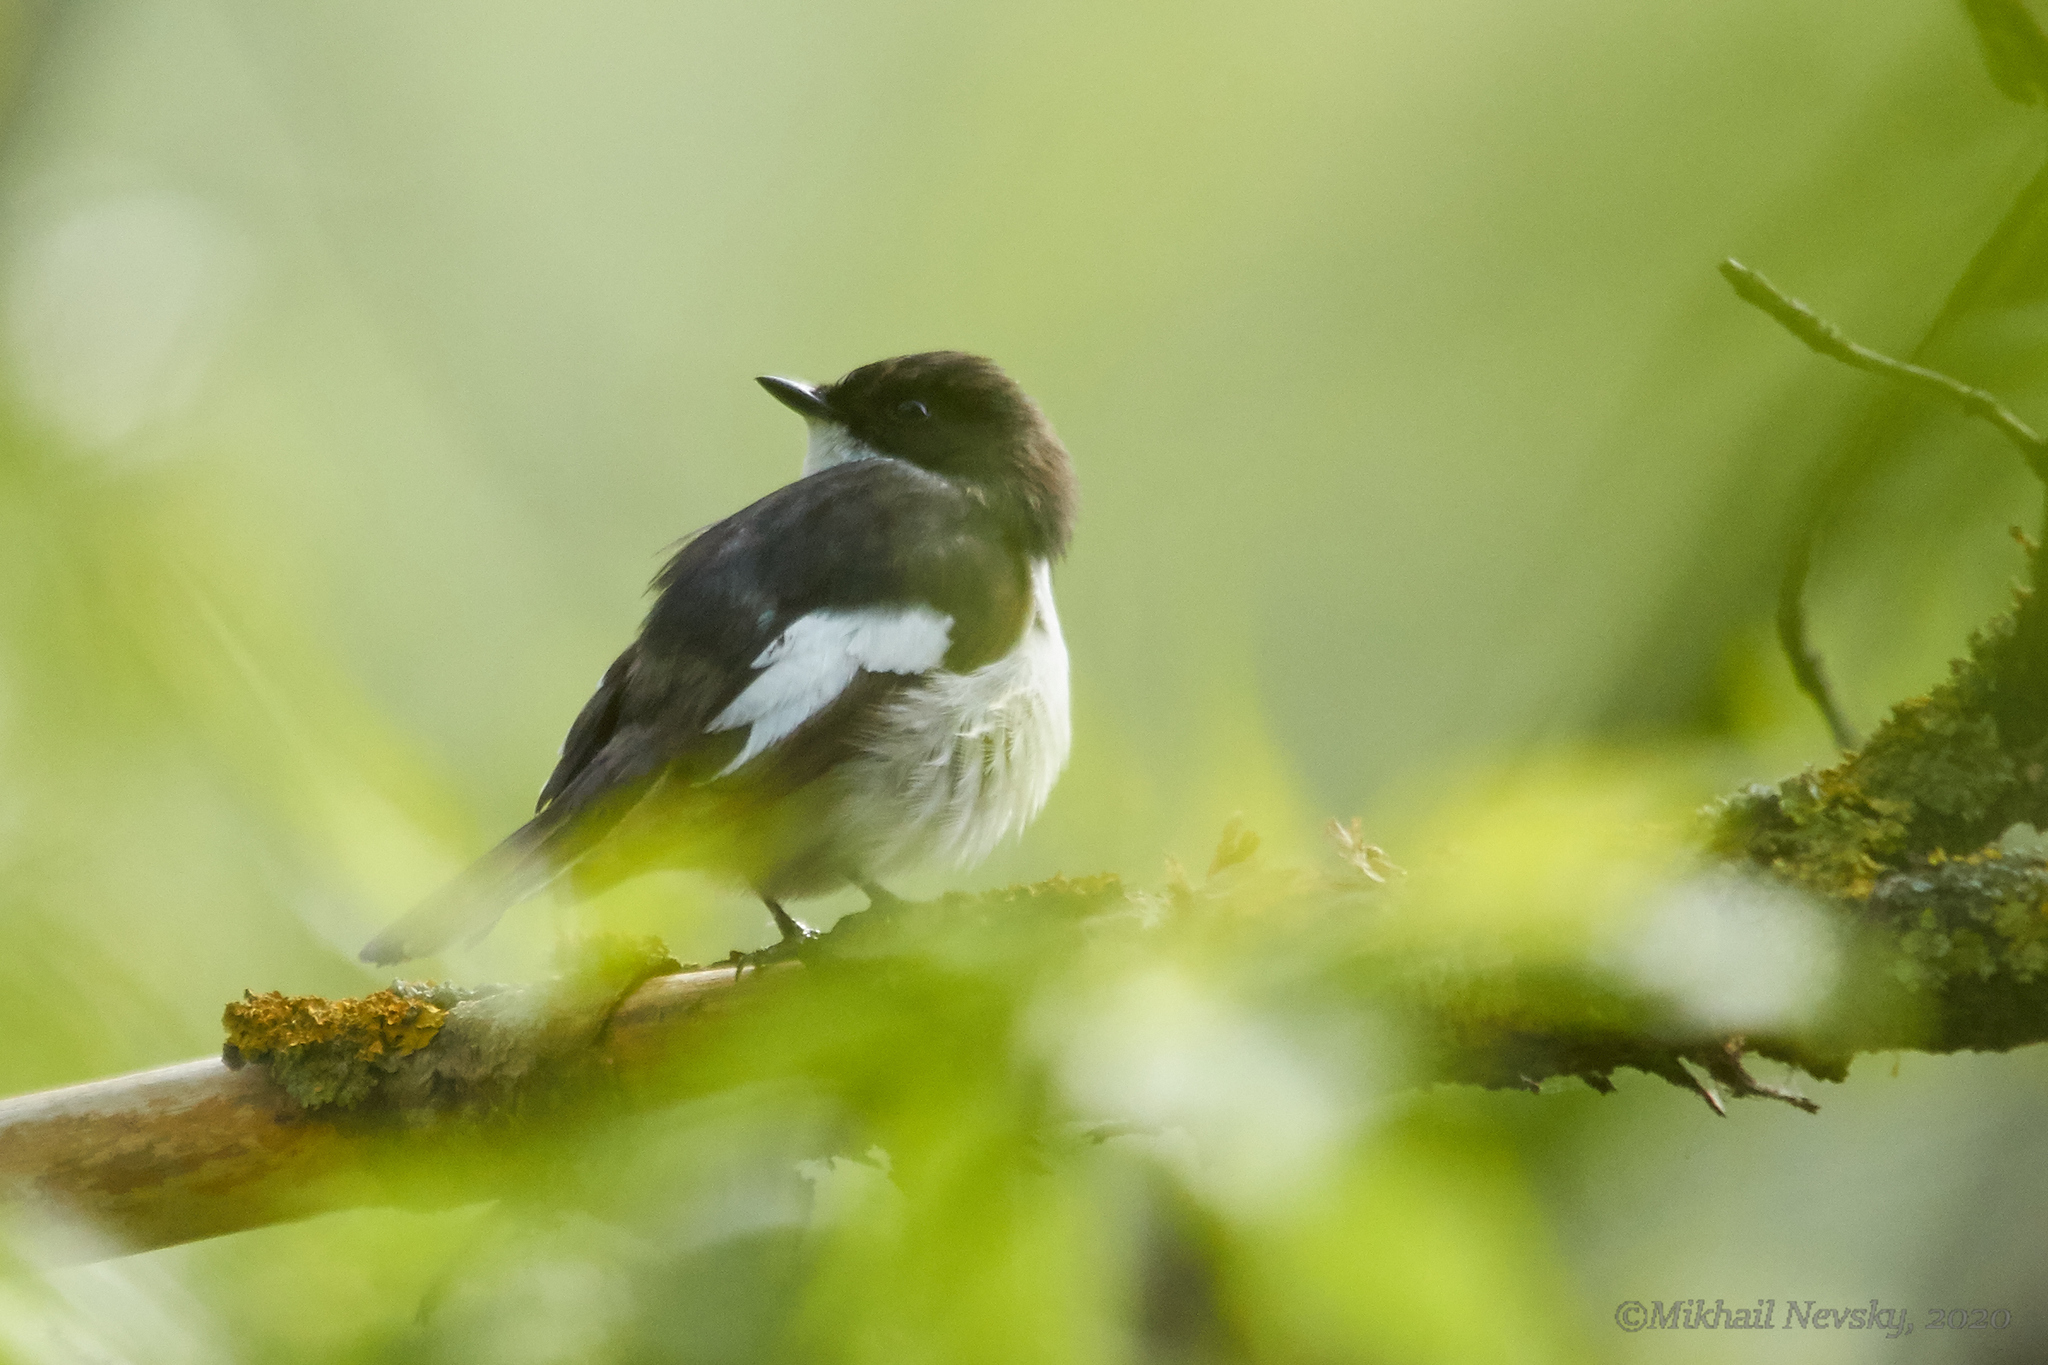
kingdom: Animalia
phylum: Chordata
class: Aves
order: Passeriformes
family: Muscicapidae
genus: Ficedula
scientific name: Ficedula hypoleuca
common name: European pied flycatcher
